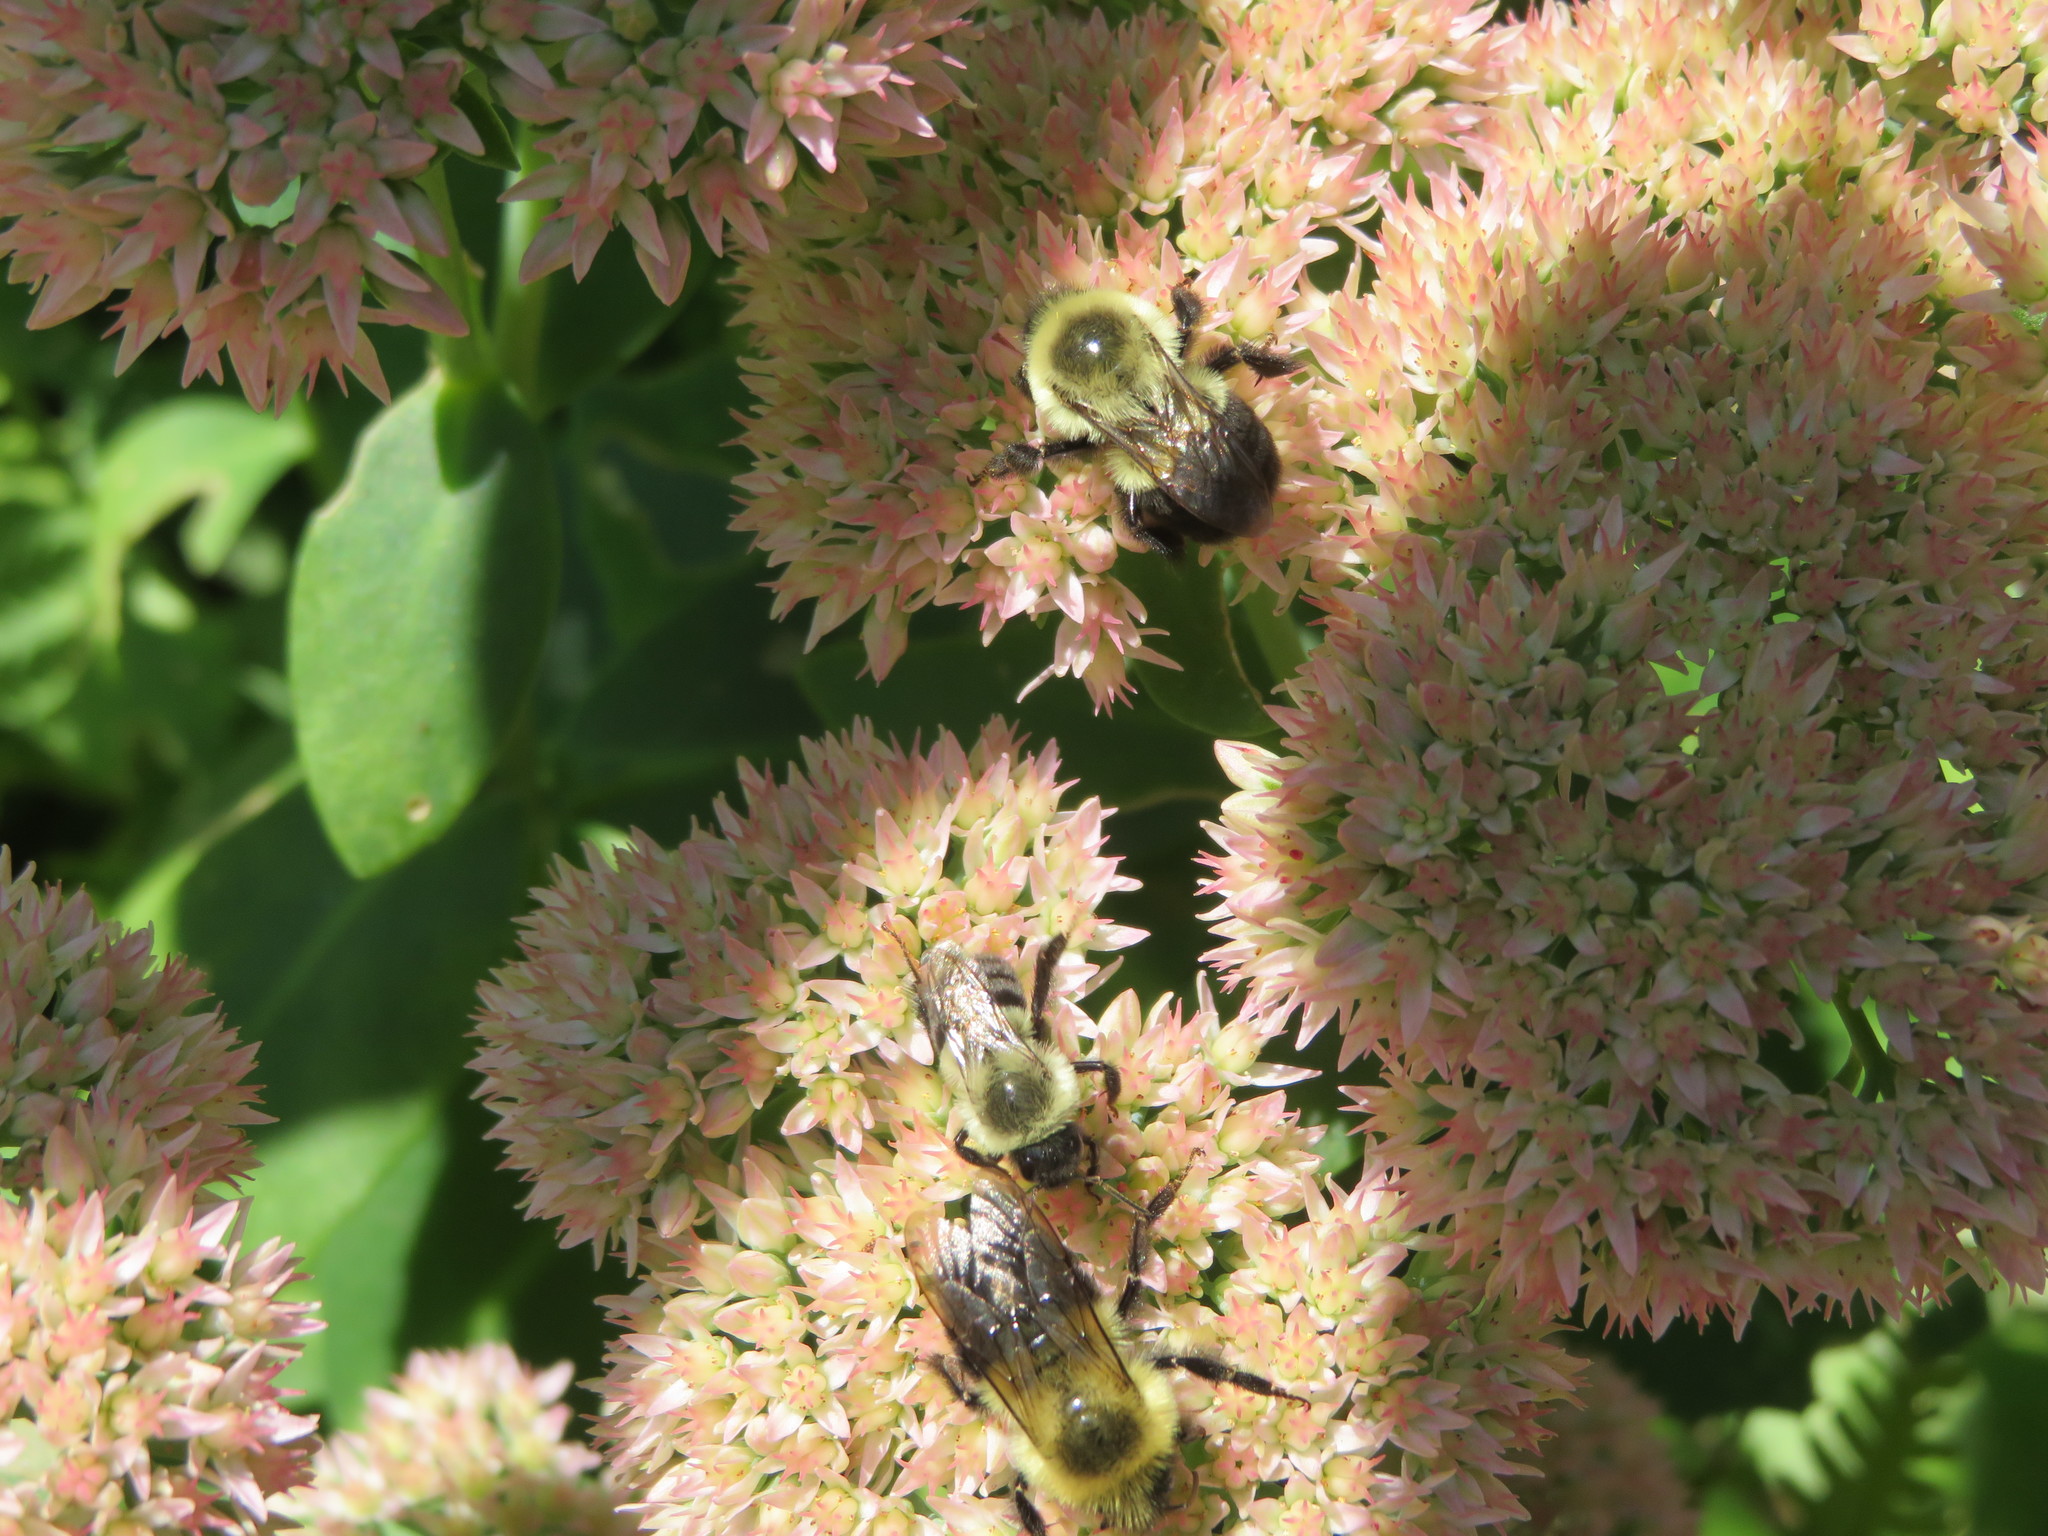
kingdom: Animalia
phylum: Arthropoda
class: Insecta
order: Hymenoptera
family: Apidae
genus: Bombus
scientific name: Bombus impatiens
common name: Common eastern bumble bee
